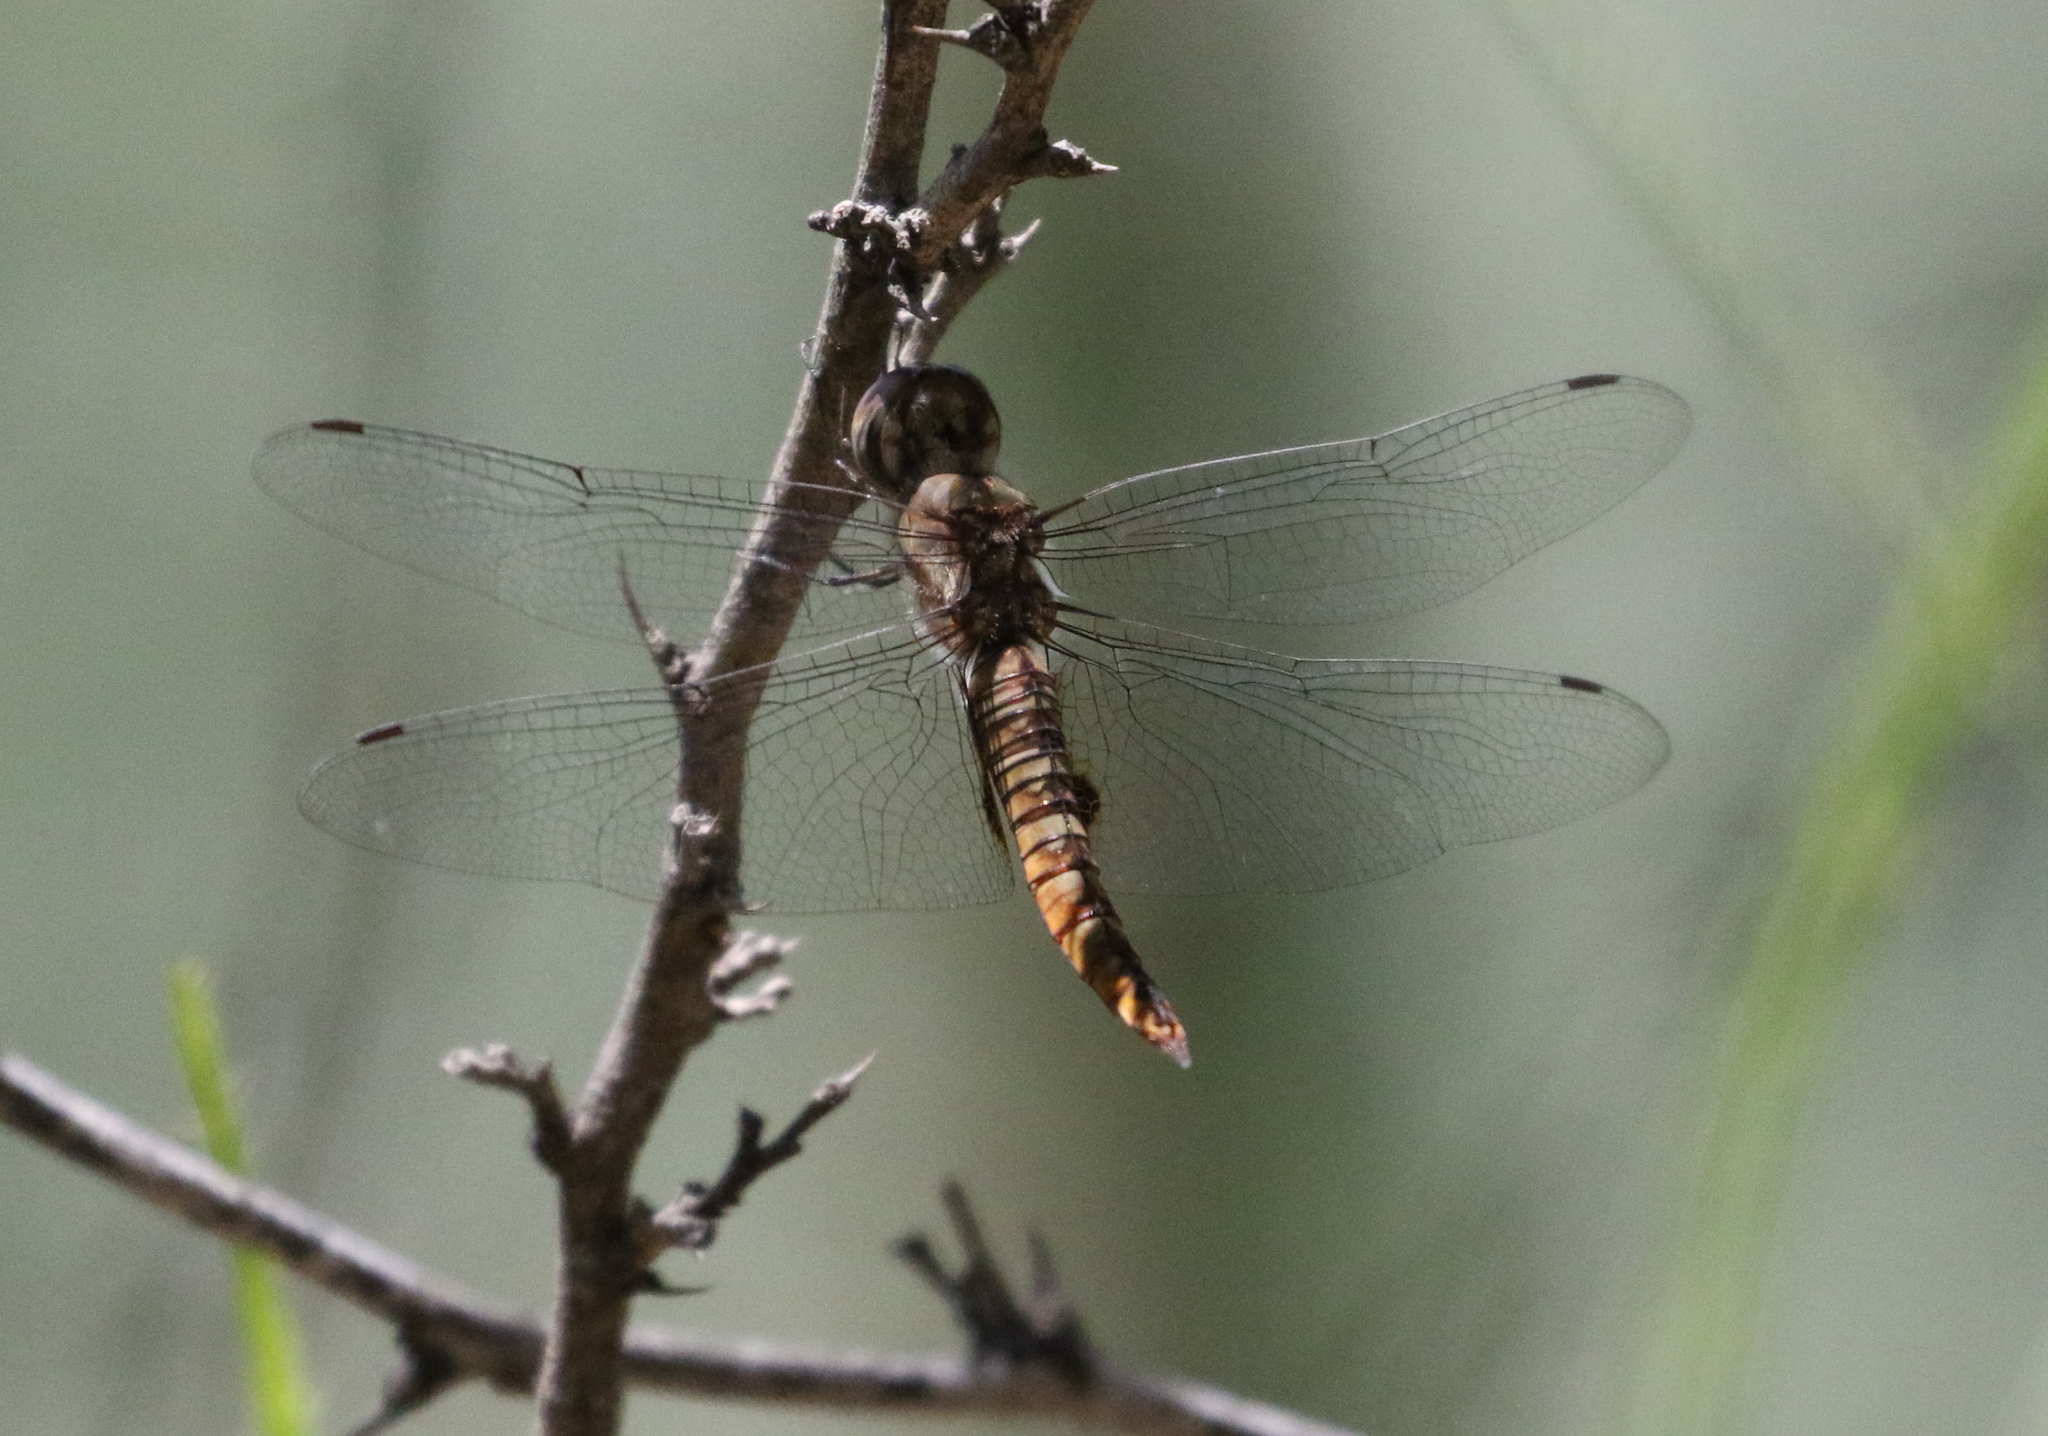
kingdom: Animalia
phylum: Arthropoda
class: Insecta
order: Odonata
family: Libellulidae
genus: Pantala
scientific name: Pantala hymenaea
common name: Spot-winged glider
